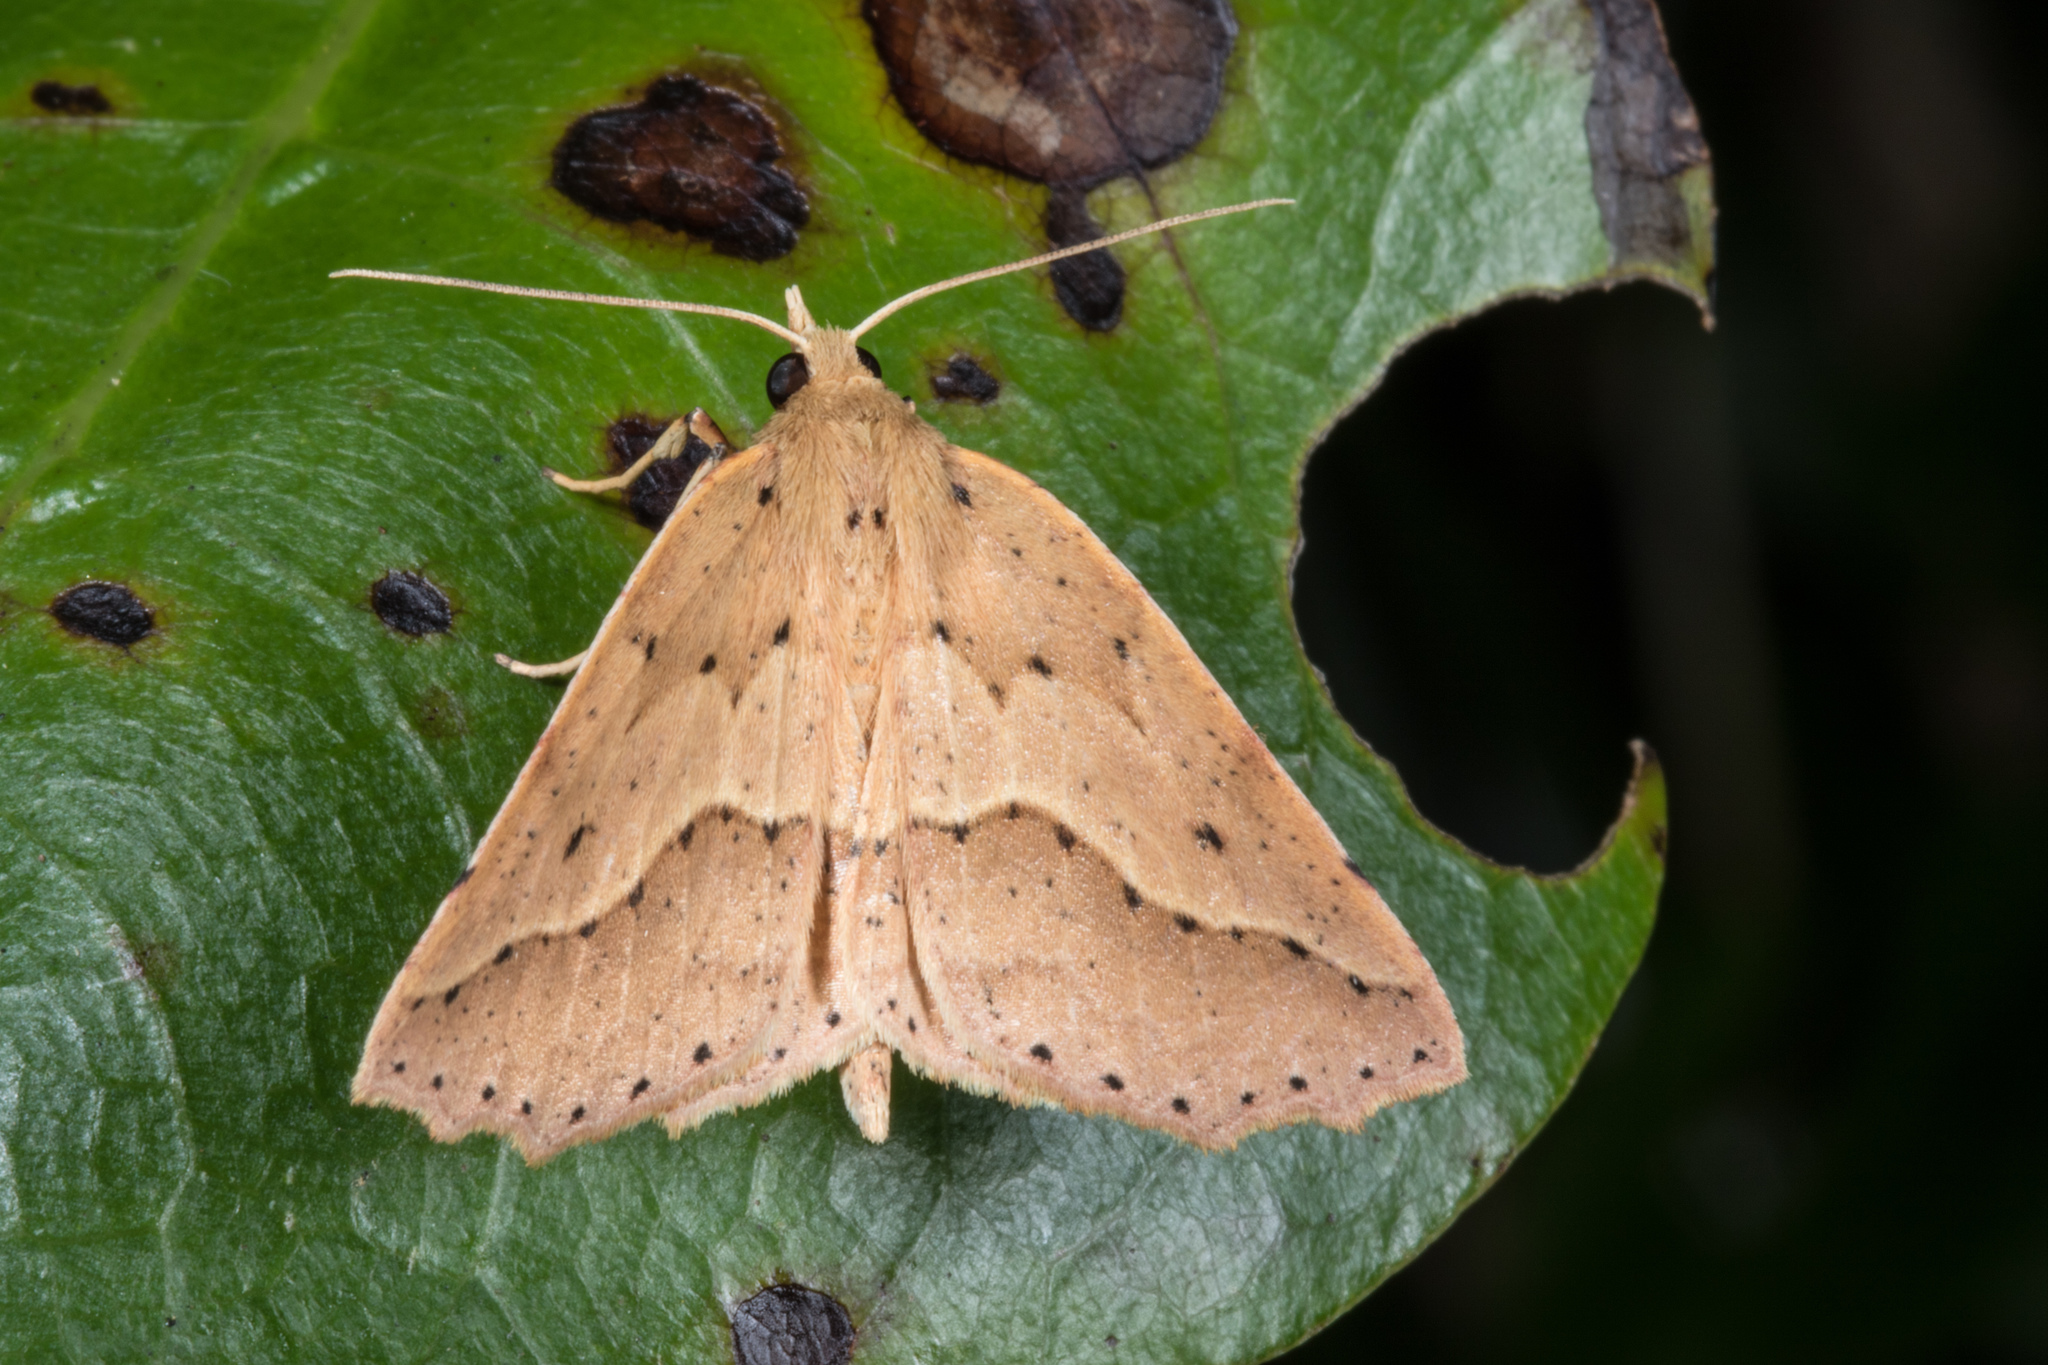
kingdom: Animalia
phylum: Arthropoda
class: Insecta
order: Lepidoptera
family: Geometridae
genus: Ischalis
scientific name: Ischalis variabilis
